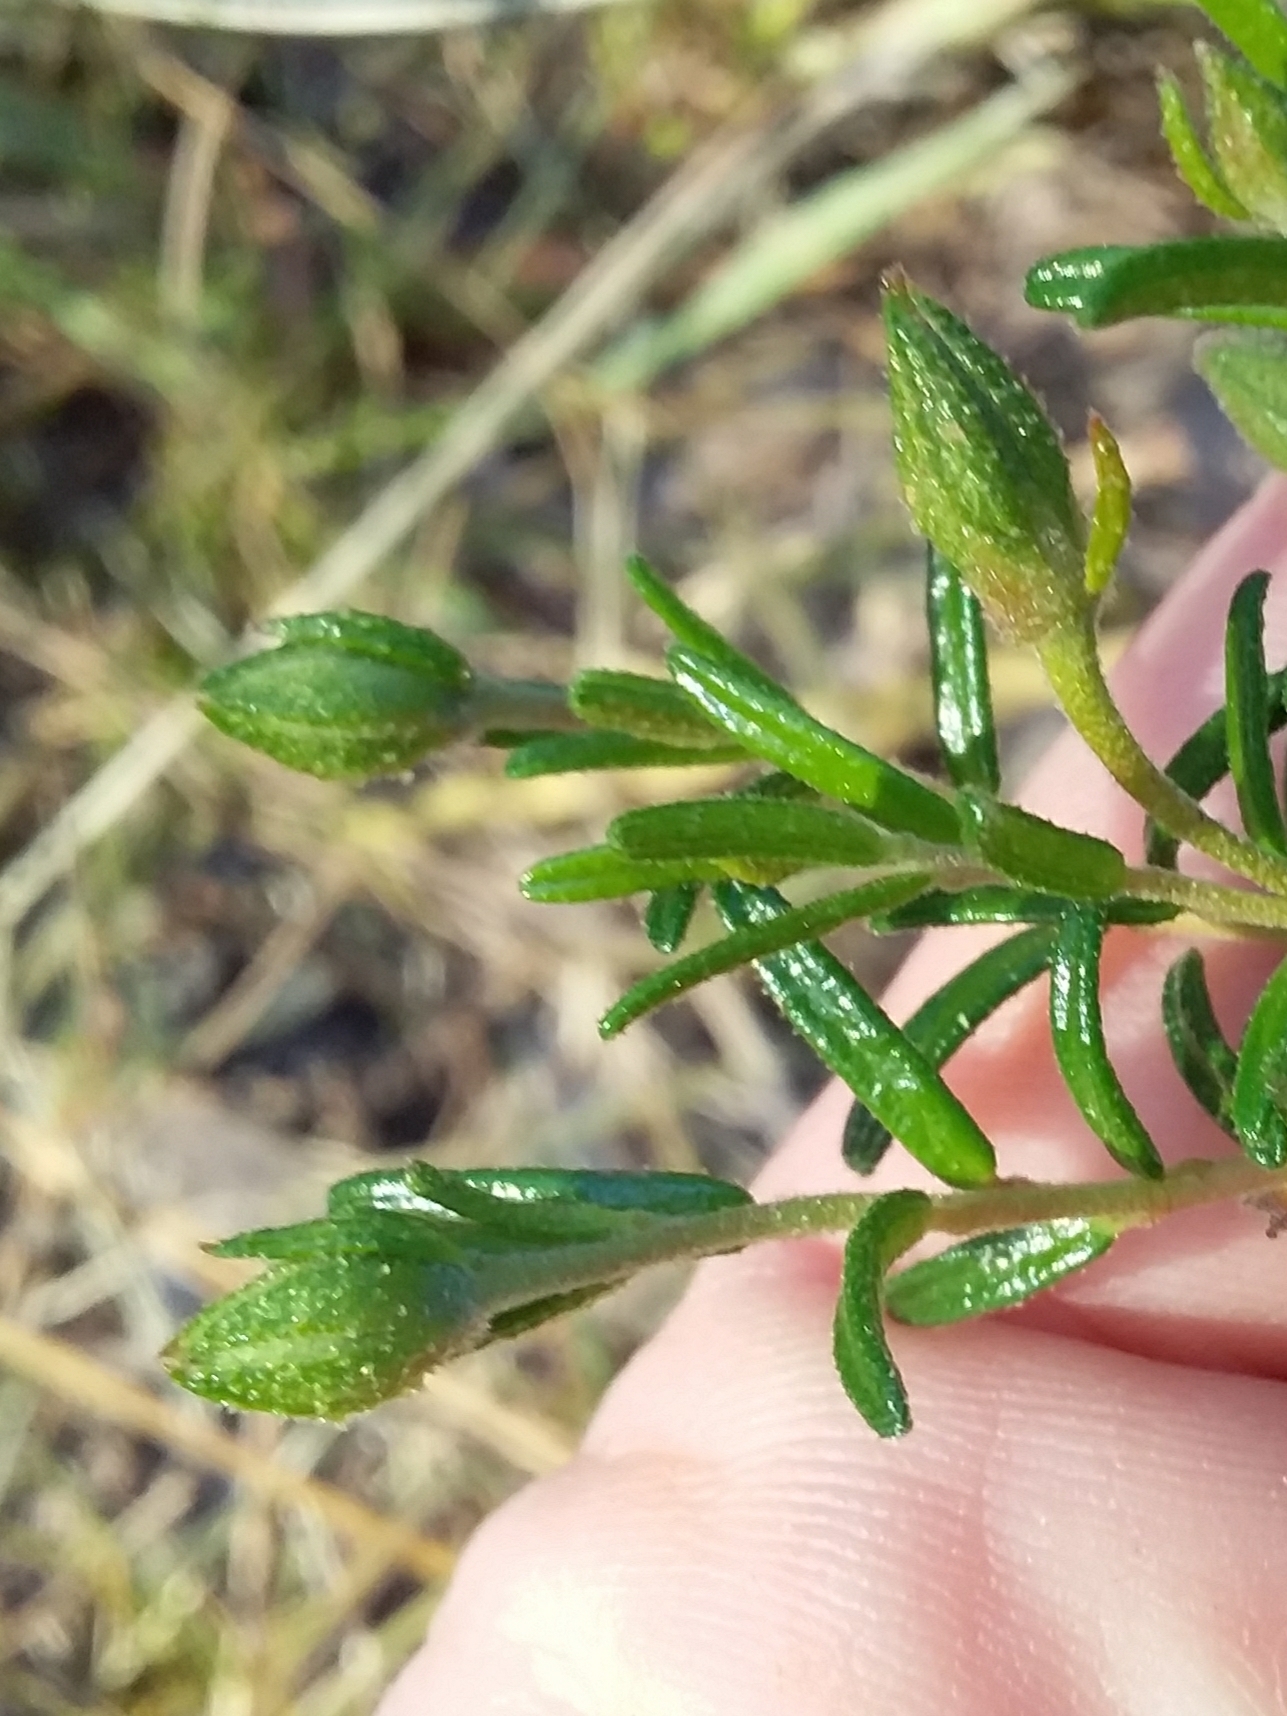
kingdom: Plantae
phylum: Tracheophyta
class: Magnoliopsida
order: Dilleniales
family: Dilleniaceae
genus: Hibbertia
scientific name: Hibbertia glebosa
